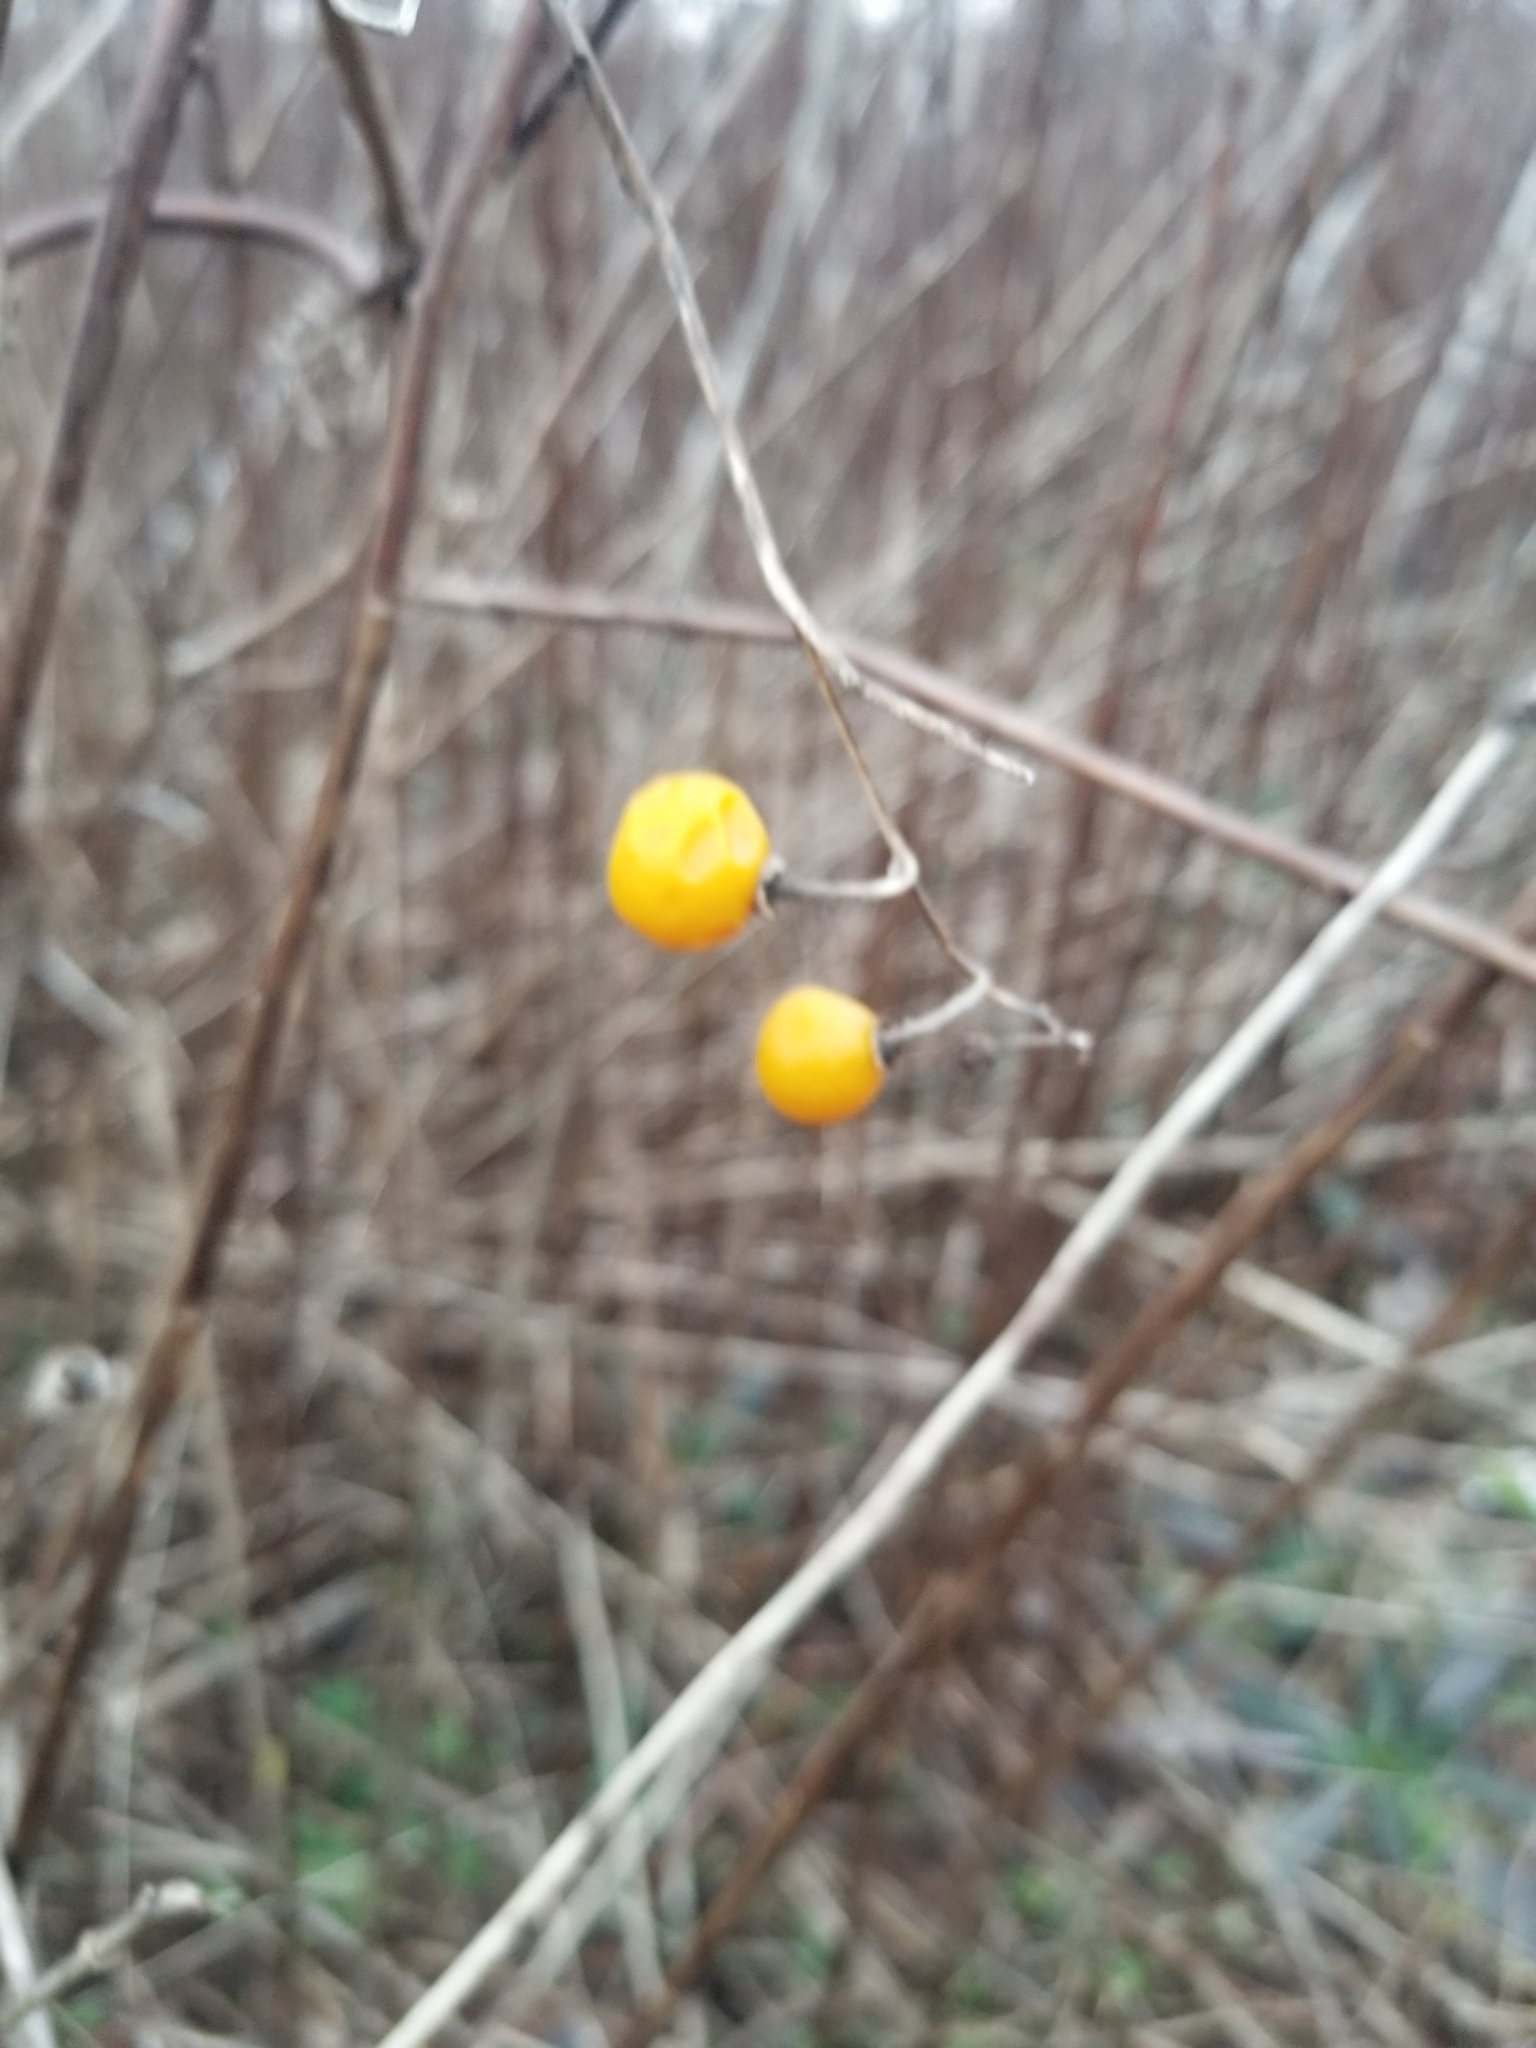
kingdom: Plantae
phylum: Tracheophyta
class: Magnoliopsida
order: Solanales
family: Solanaceae
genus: Solanum
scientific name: Solanum carolinense
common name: Horse-nettle
